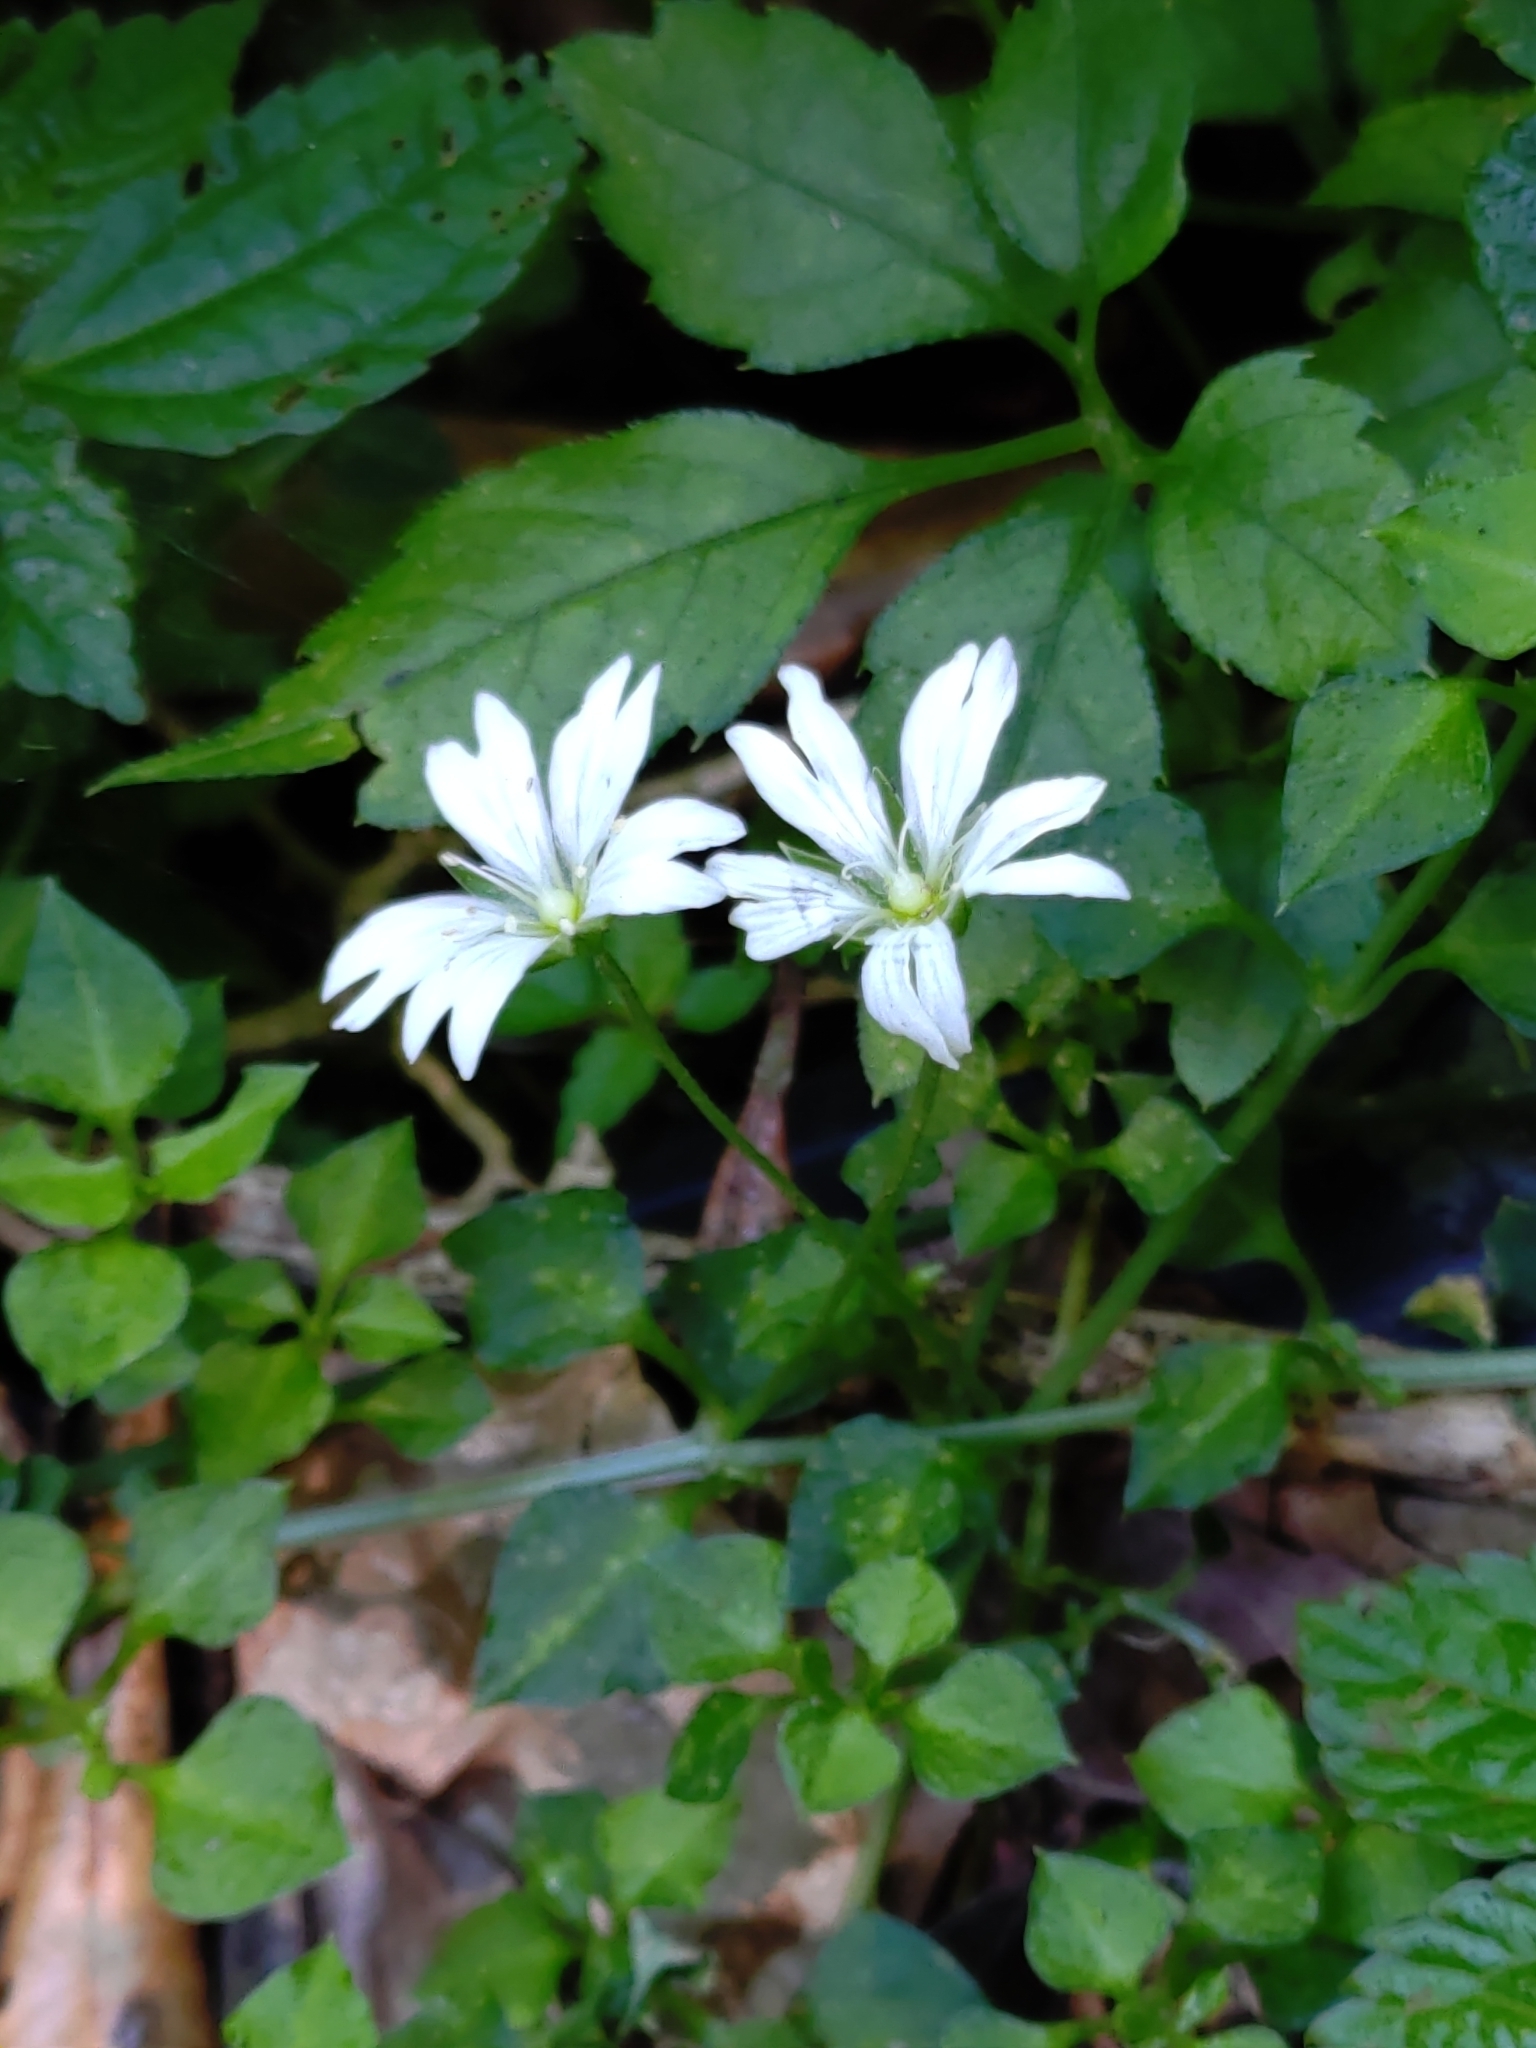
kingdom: Plantae
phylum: Tracheophyta
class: Magnoliopsida
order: Caryophyllales
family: Caryophyllaceae
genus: Nubelaria
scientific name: Nubelaria arisanensis
